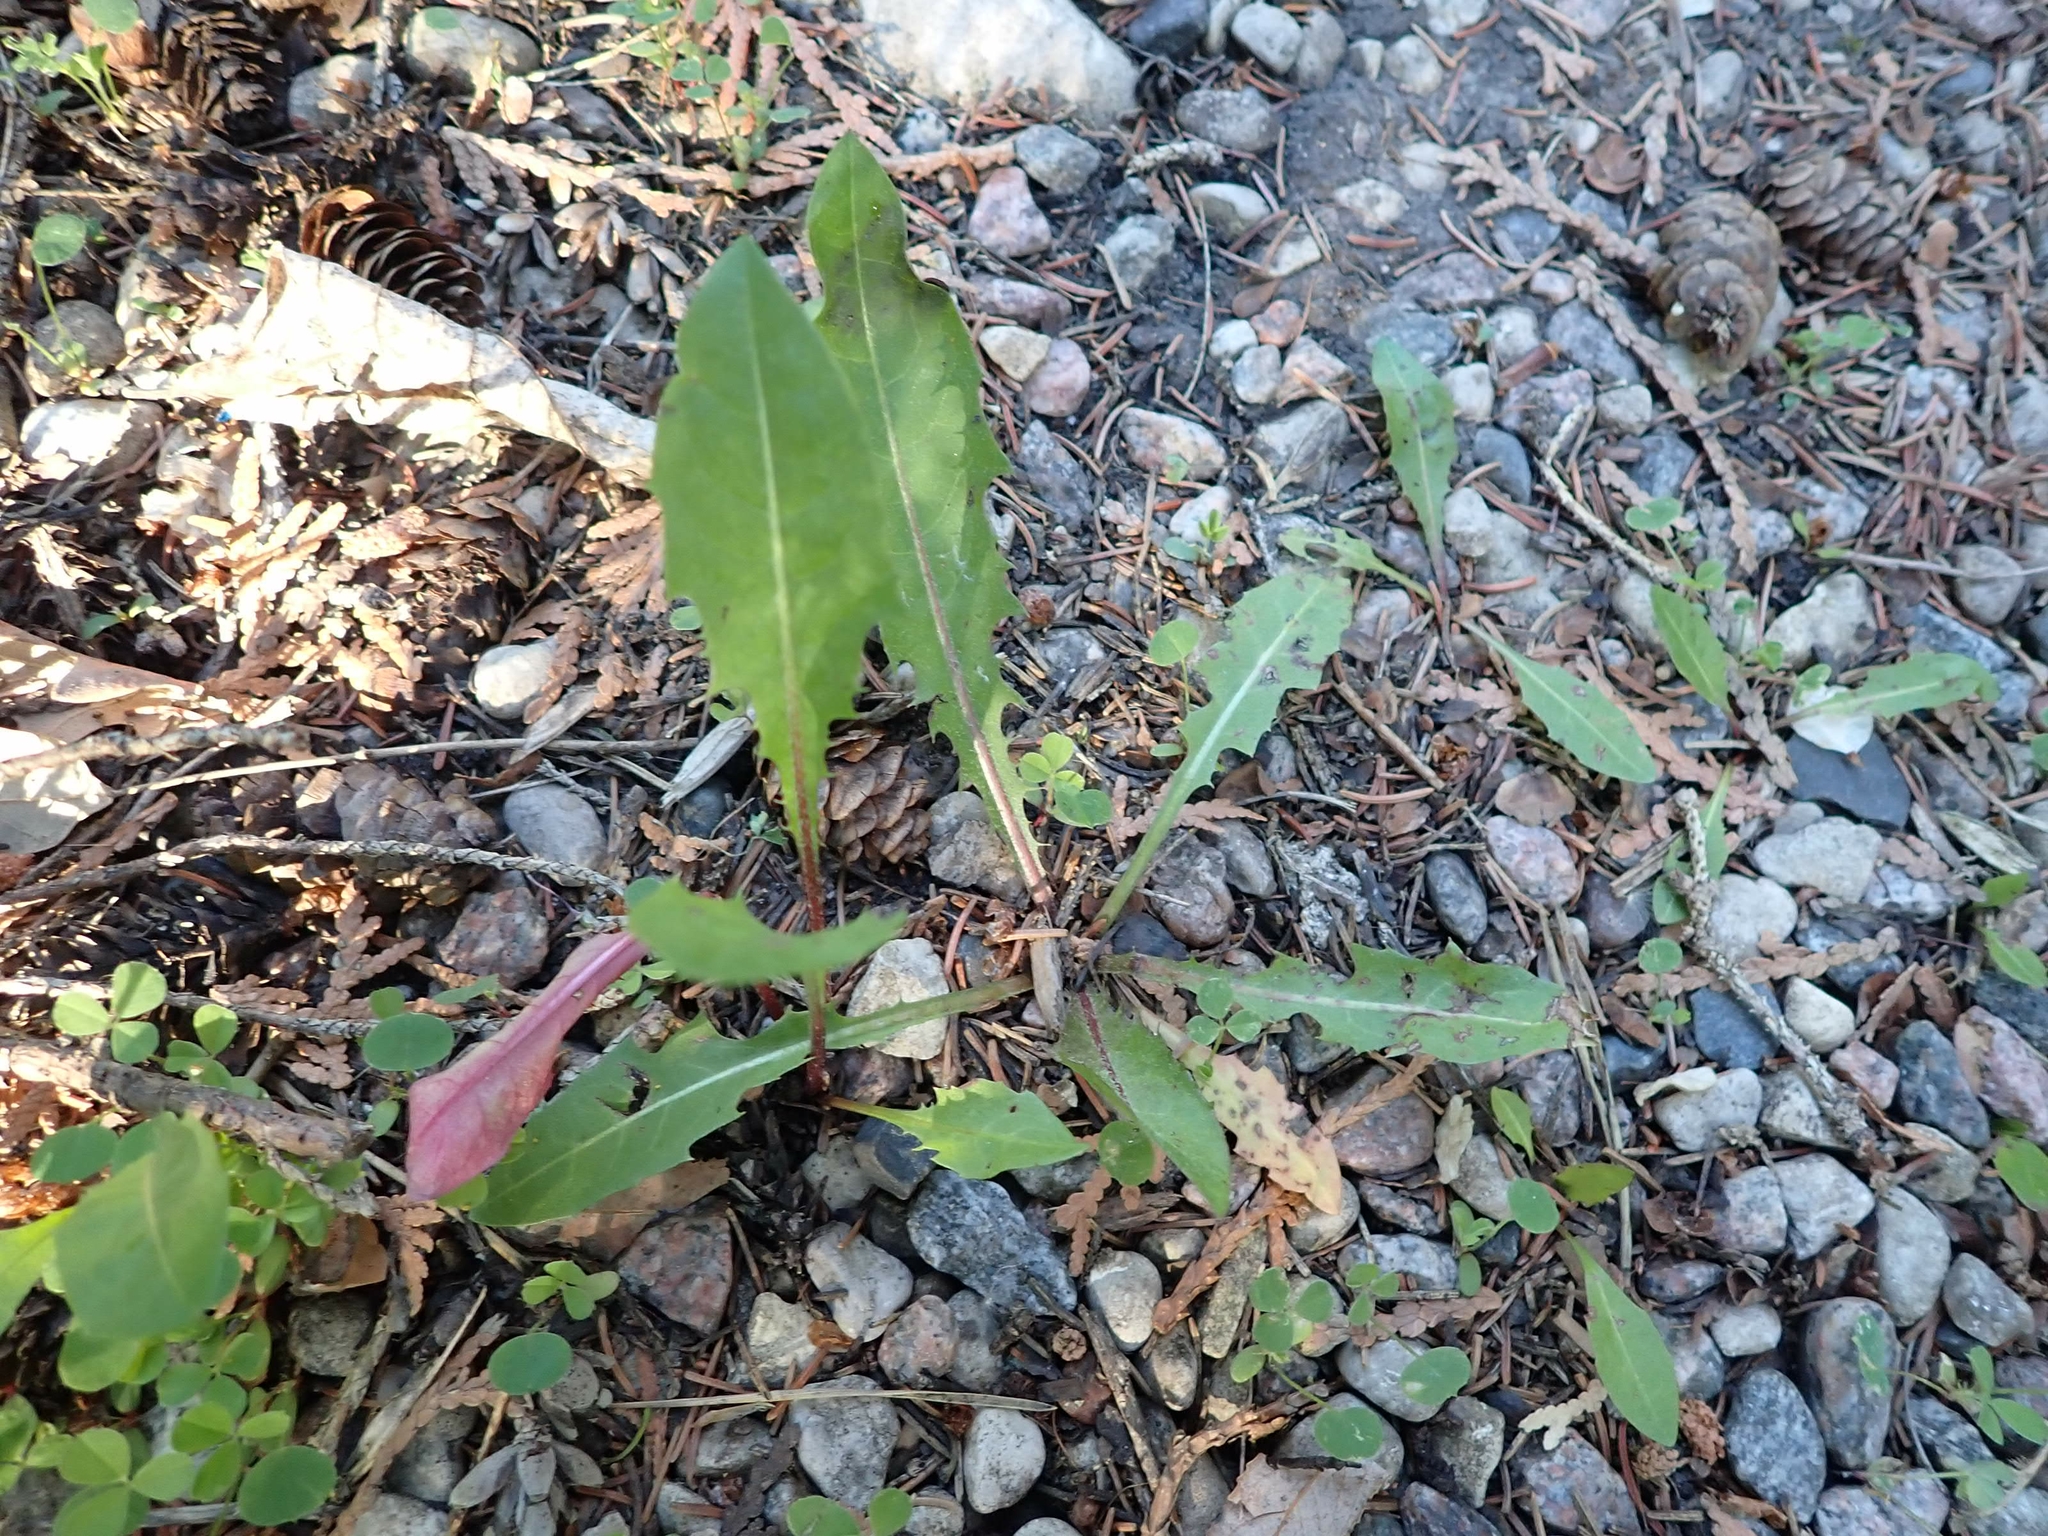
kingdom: Plantae
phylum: Tracheophyta
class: Magnoliopsida
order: Asterales
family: Asteraceae
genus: Taraxacum
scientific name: Taraxacum officinale
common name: Common dandelion
